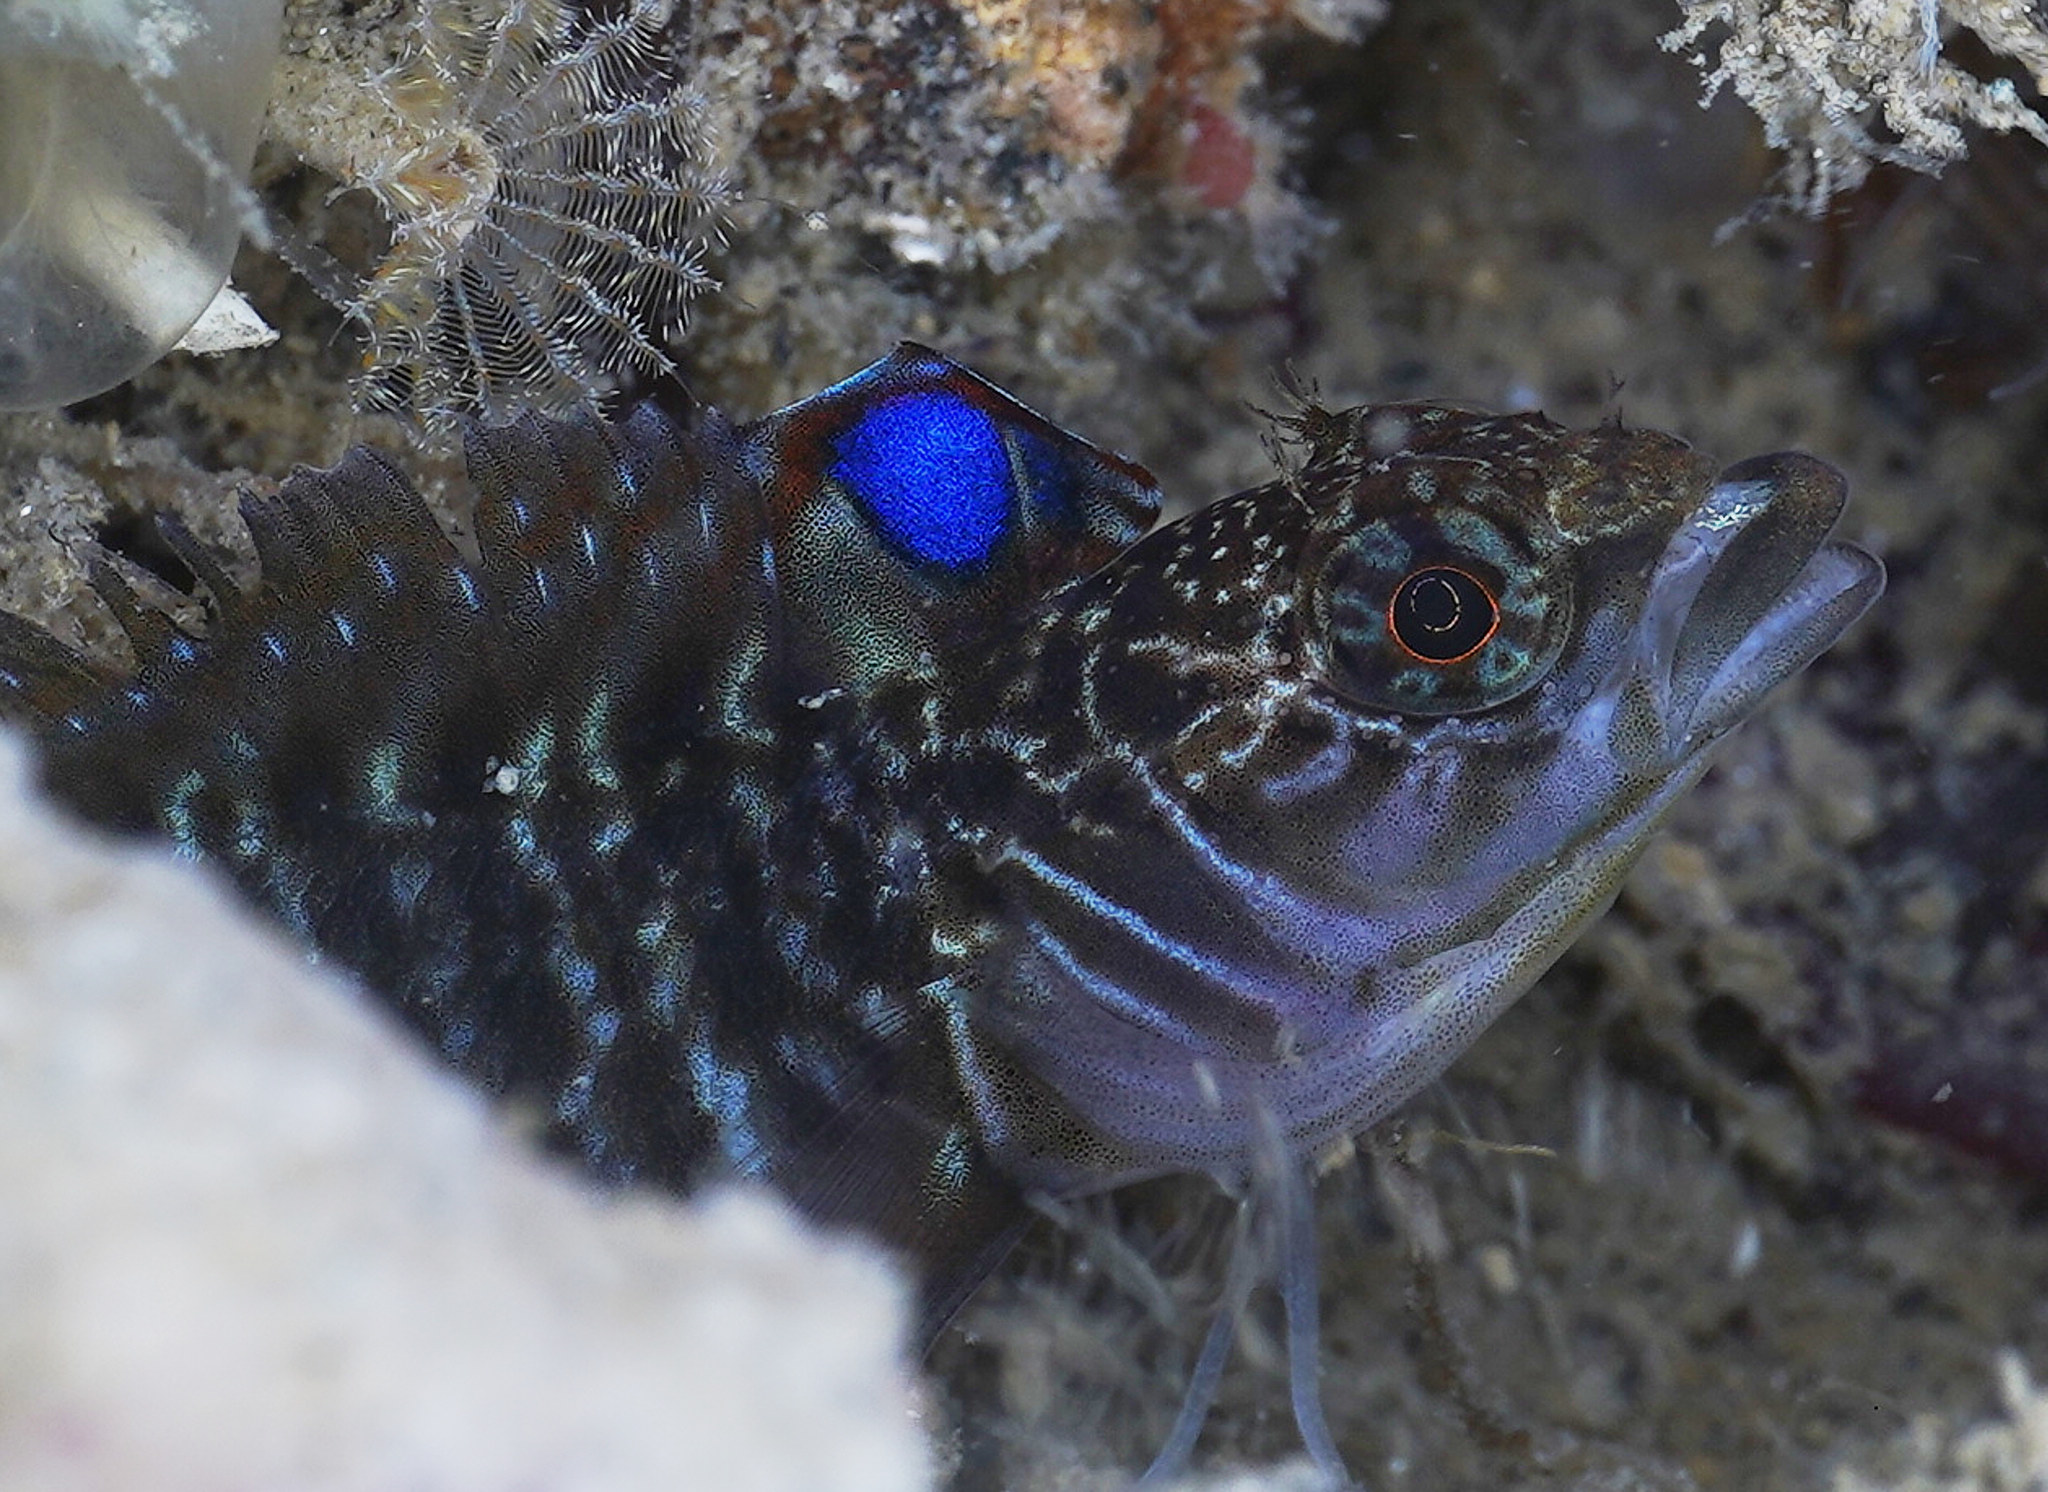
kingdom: Animalia
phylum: Chordata
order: Perciformes
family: Tripterygiidae
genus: Ruanoho
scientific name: Ruanoho decemdigitatus
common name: Longfinned triplefin
